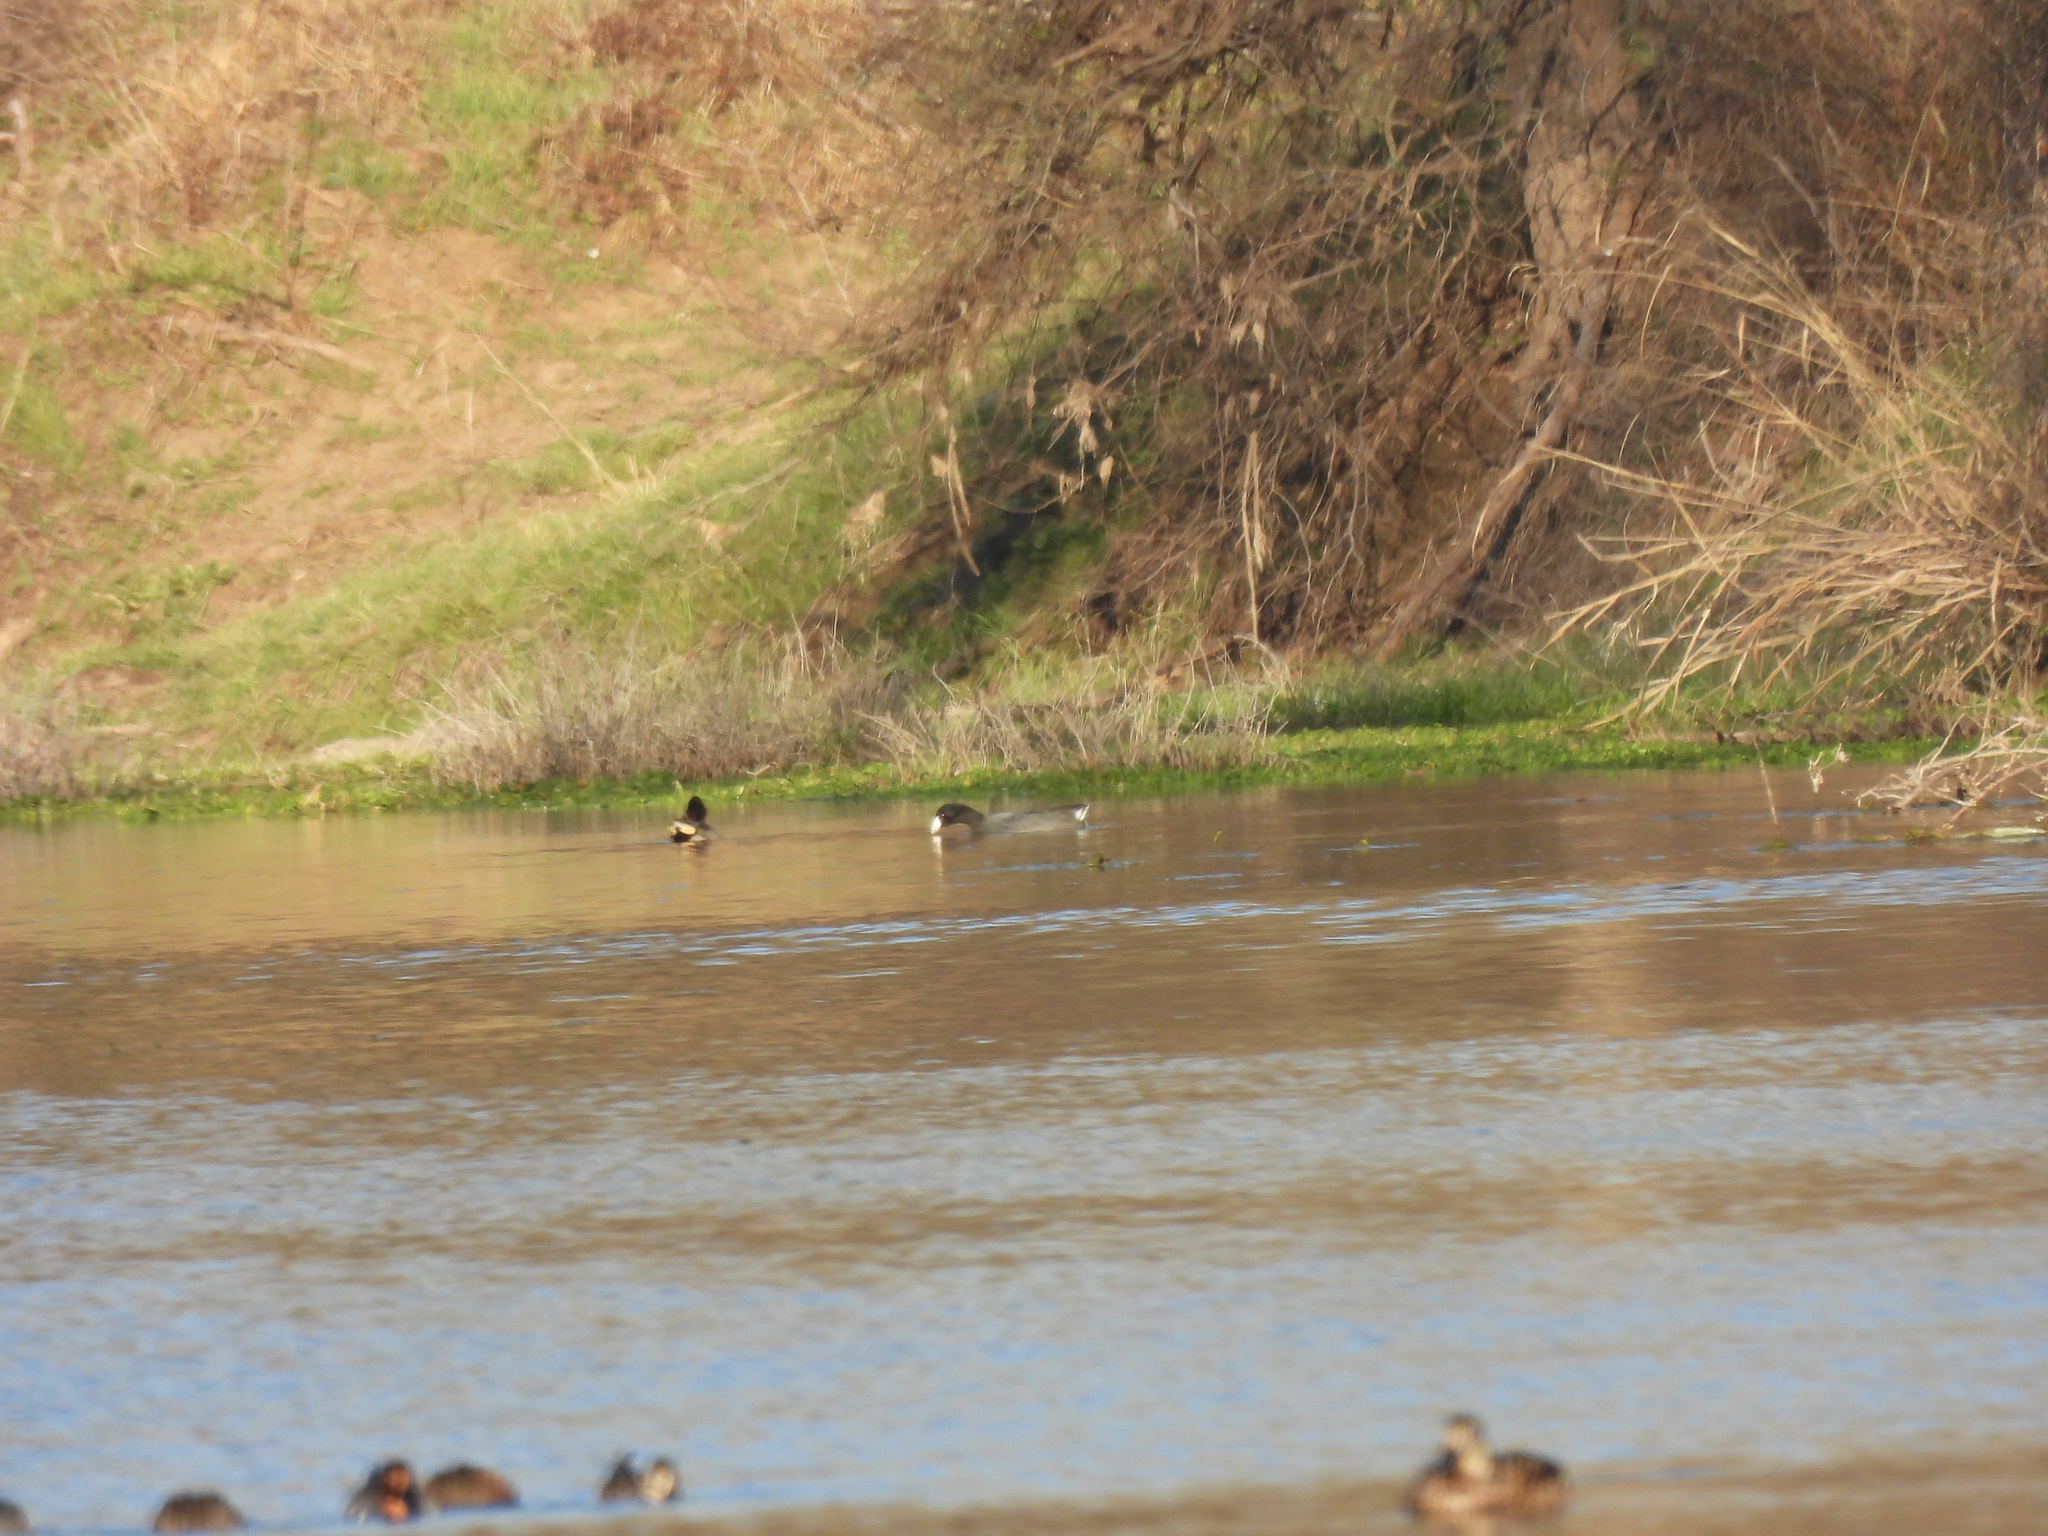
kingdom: Animalia
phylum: Chordata
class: Aves
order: Gruiformes
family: Rallidae
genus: Fulica
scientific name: Fulica americana
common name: American coot
